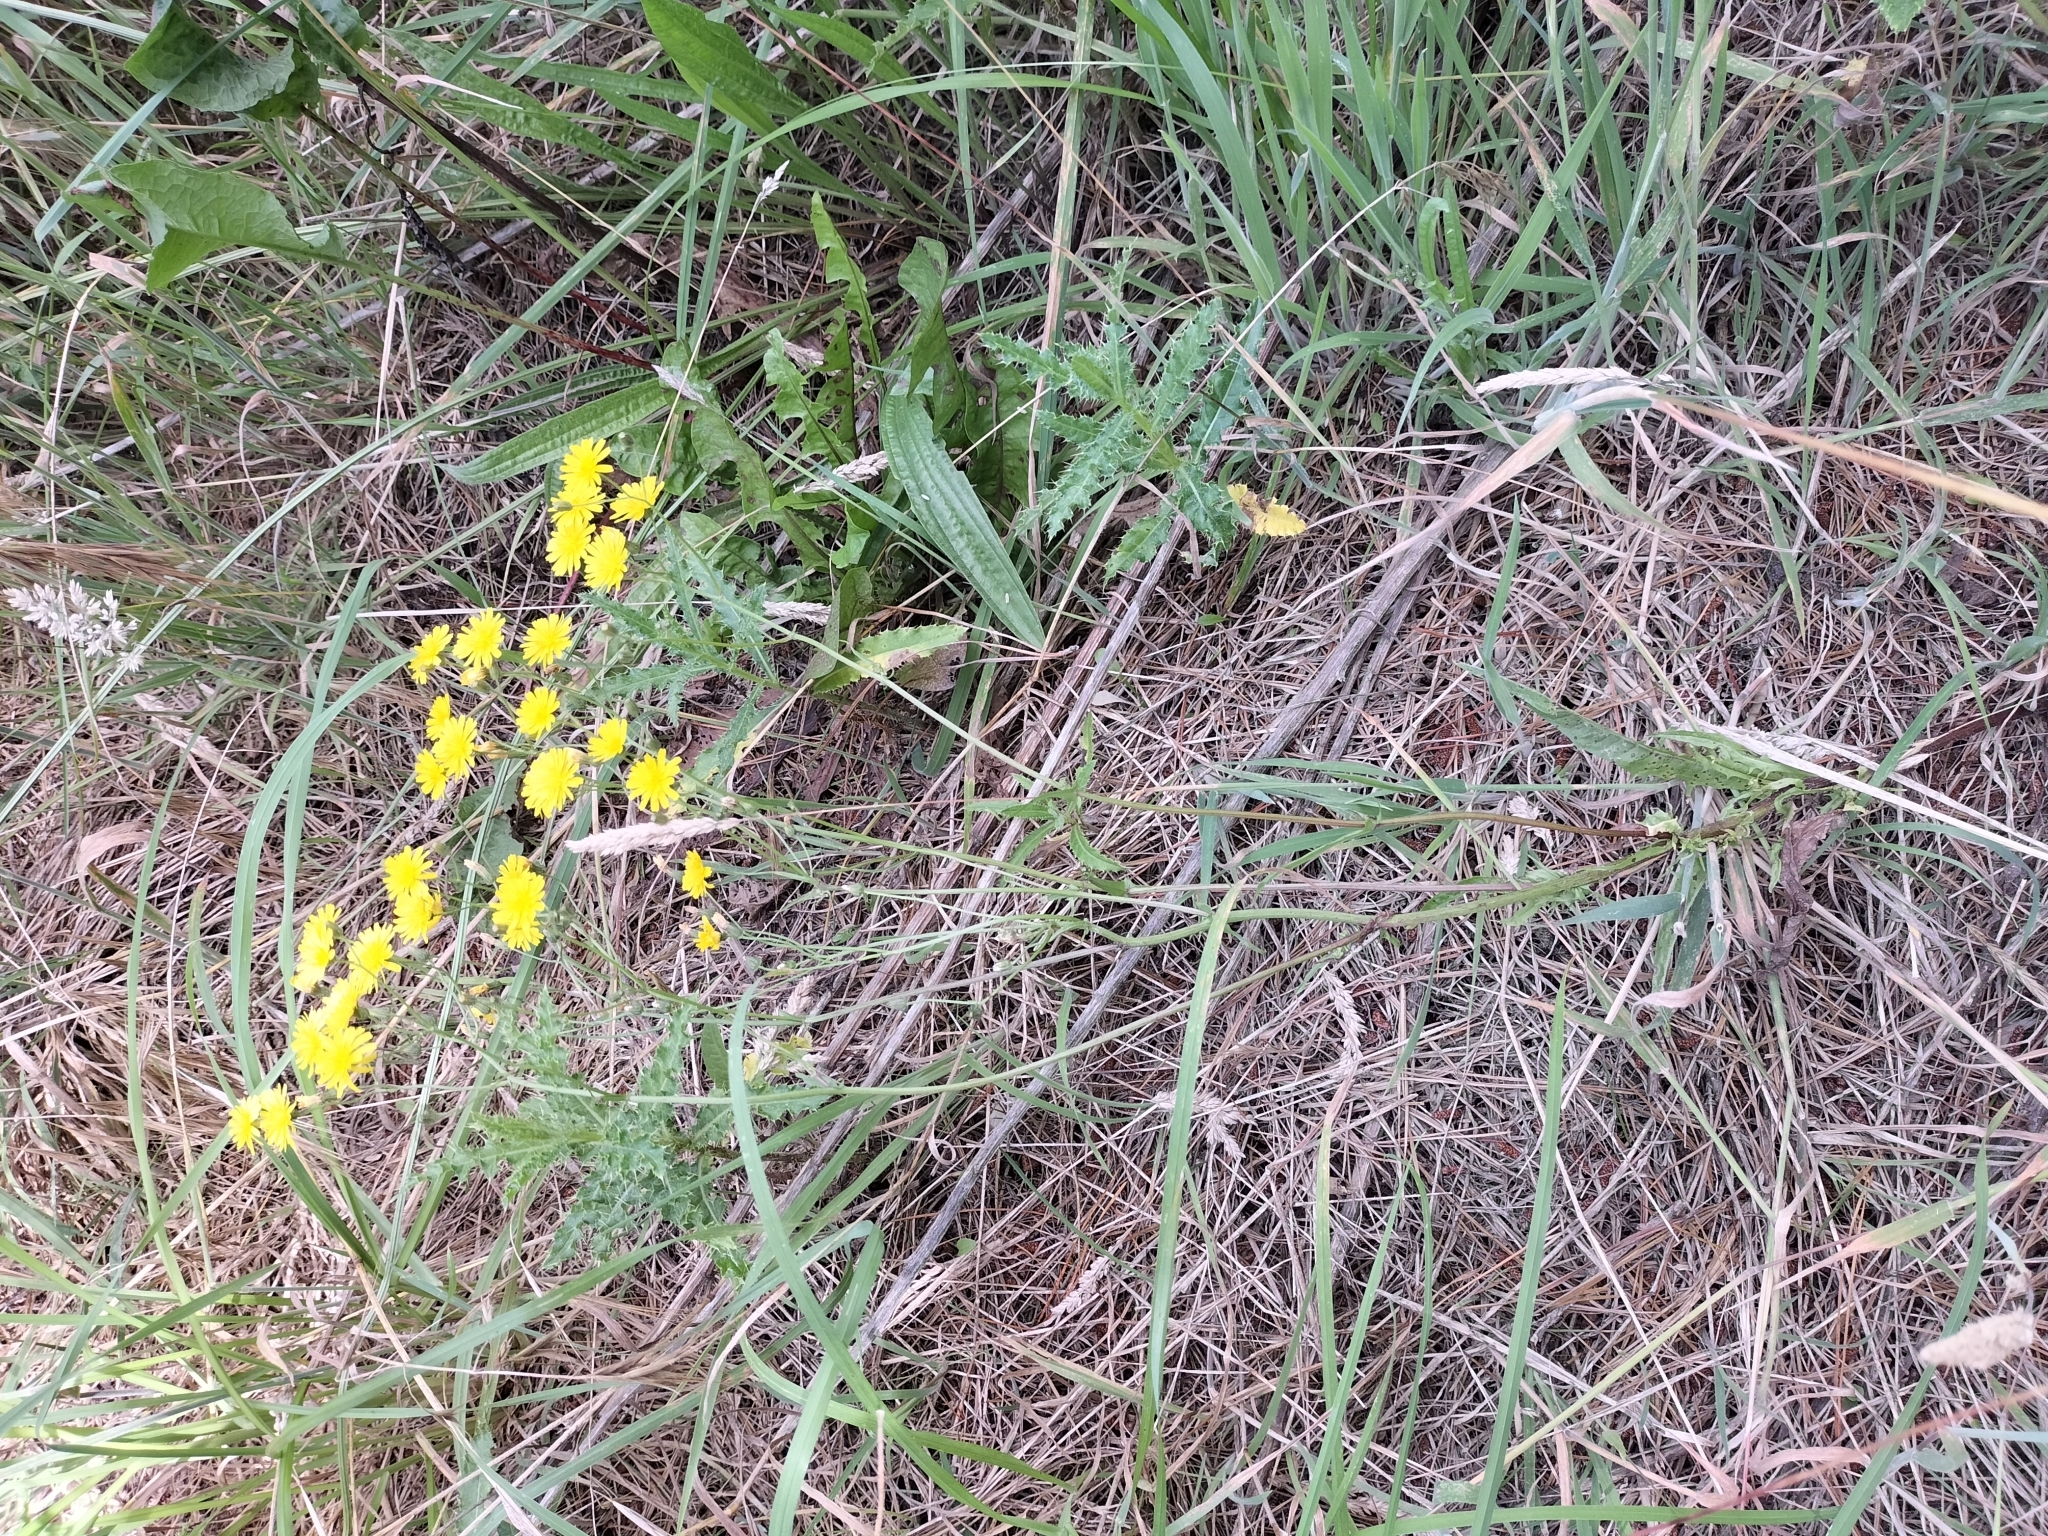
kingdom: Plantae
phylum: Tracheophyta
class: Magnoliopsida
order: Asterales
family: Asteraceae
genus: Crepis
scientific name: Crepis capillaris
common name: Smooth hawksbeard
